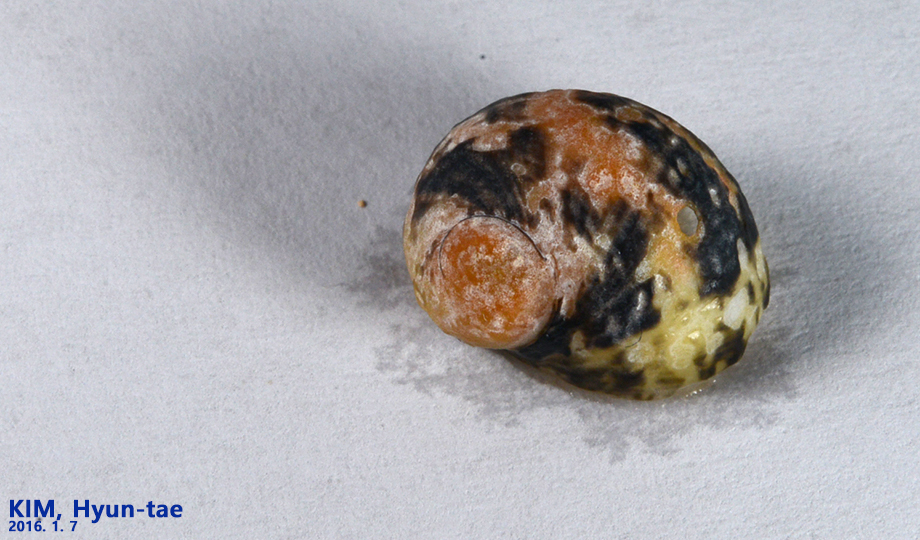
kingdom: Animalia
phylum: Mollusca
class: Gastropoda
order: Cycloneritida
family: Neritidae
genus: Nerita
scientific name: Nerita japonica
